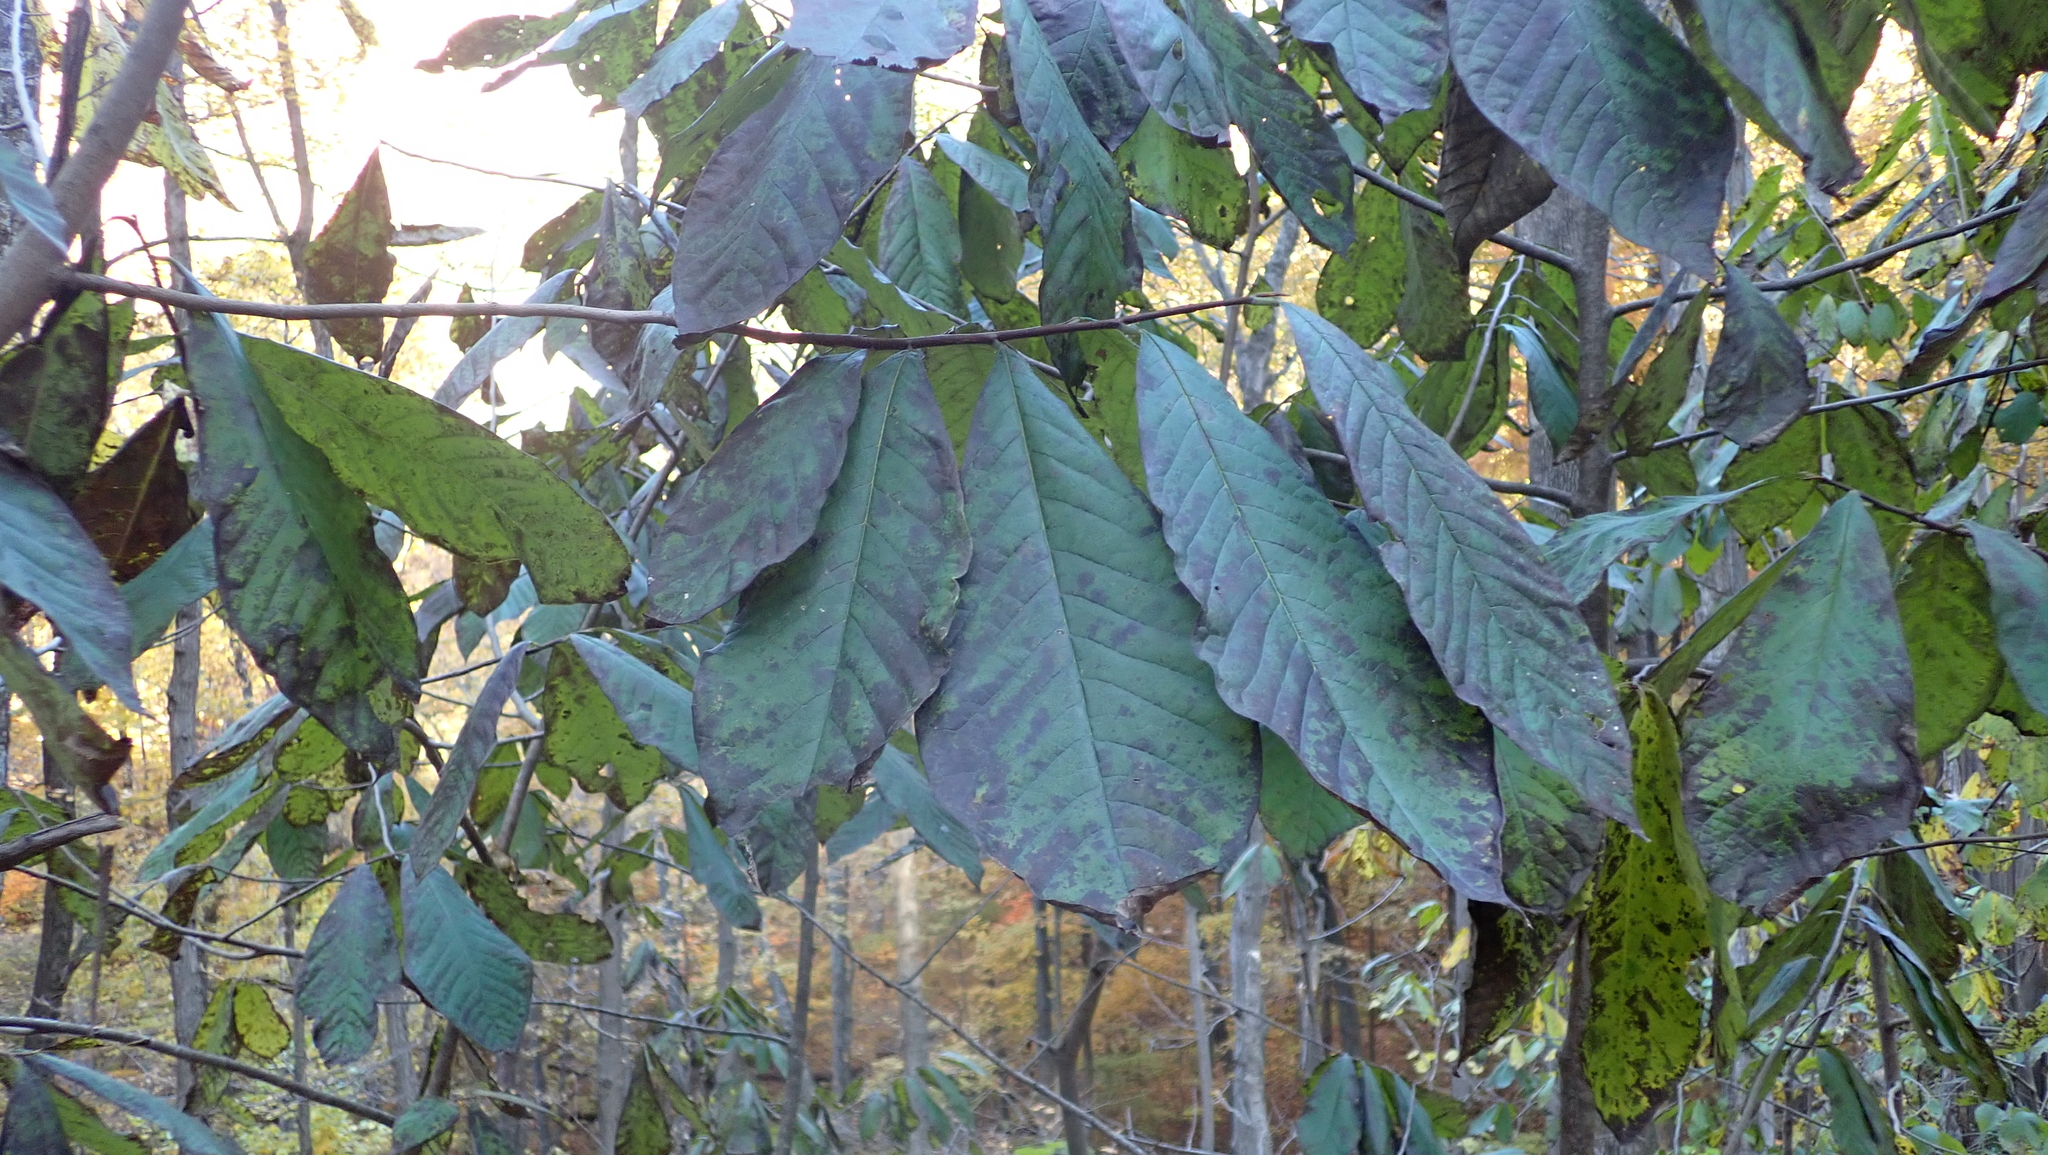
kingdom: Plantae
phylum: Tracheophyta
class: Magnoliopsida
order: Magnoliales
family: Annonaceae
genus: Asimina
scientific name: Asimina triloba
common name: Dog-banana
